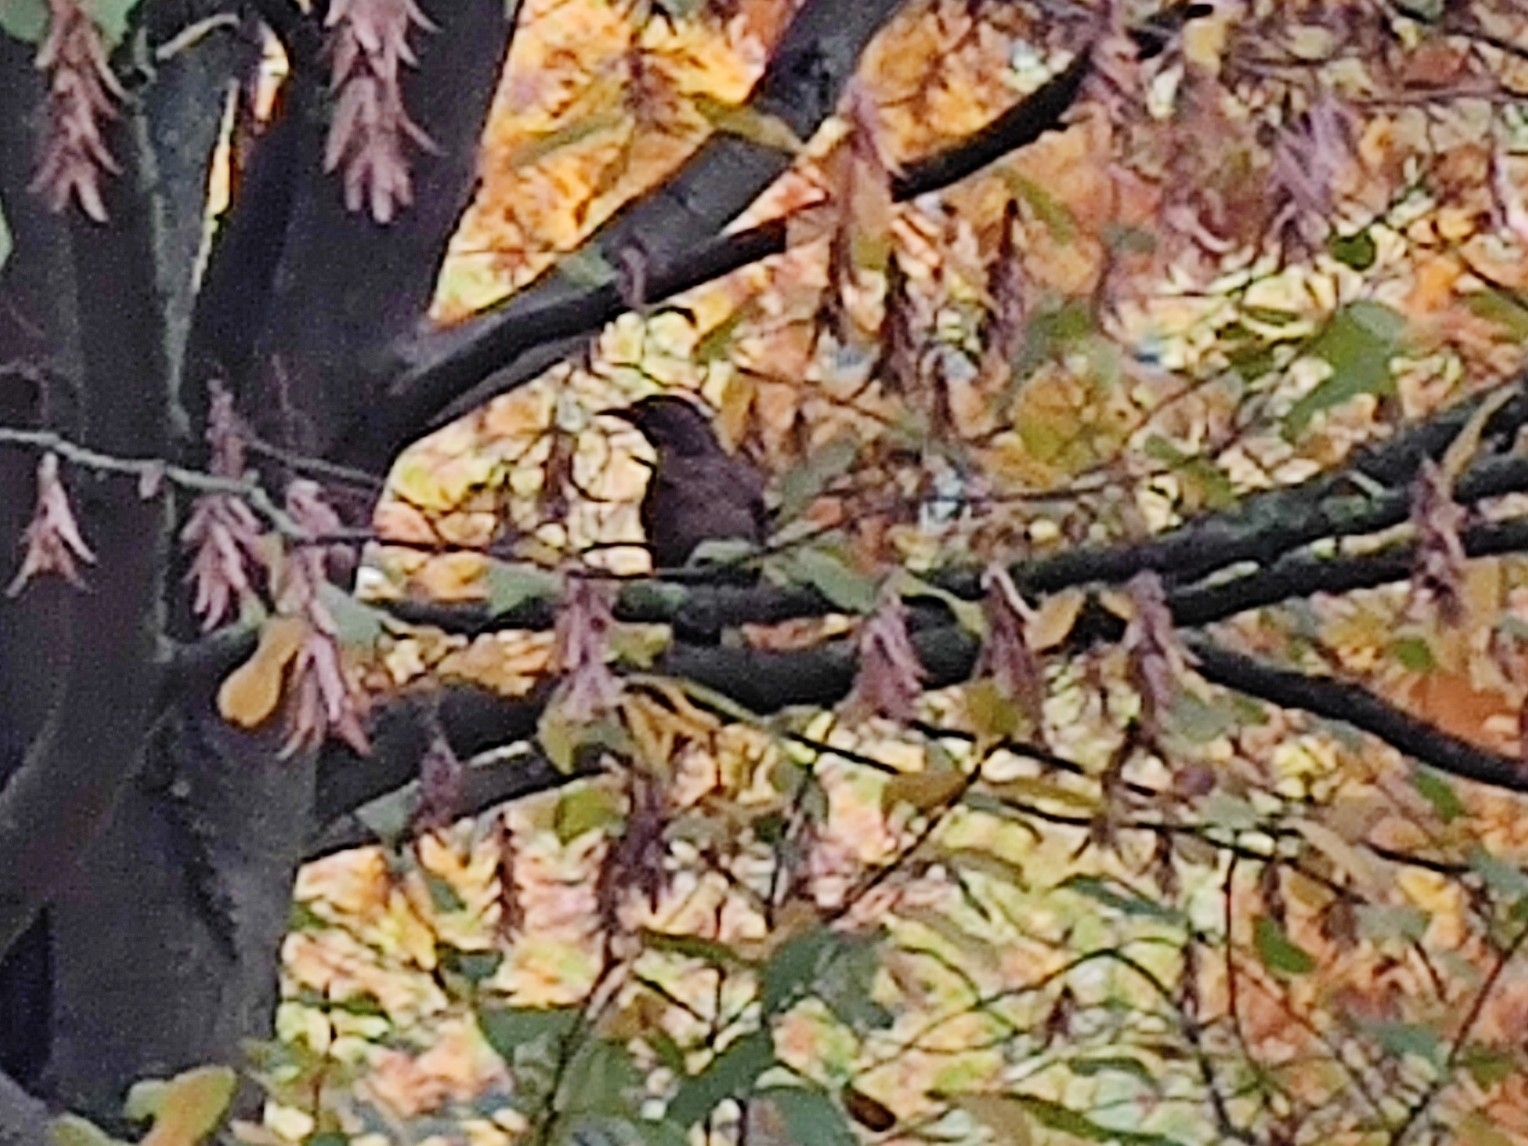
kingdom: Animalia
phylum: Chordata
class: Aves
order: Passeriformes
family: Turdidae
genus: Turdus
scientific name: Turdus merula
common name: Common blackbird
